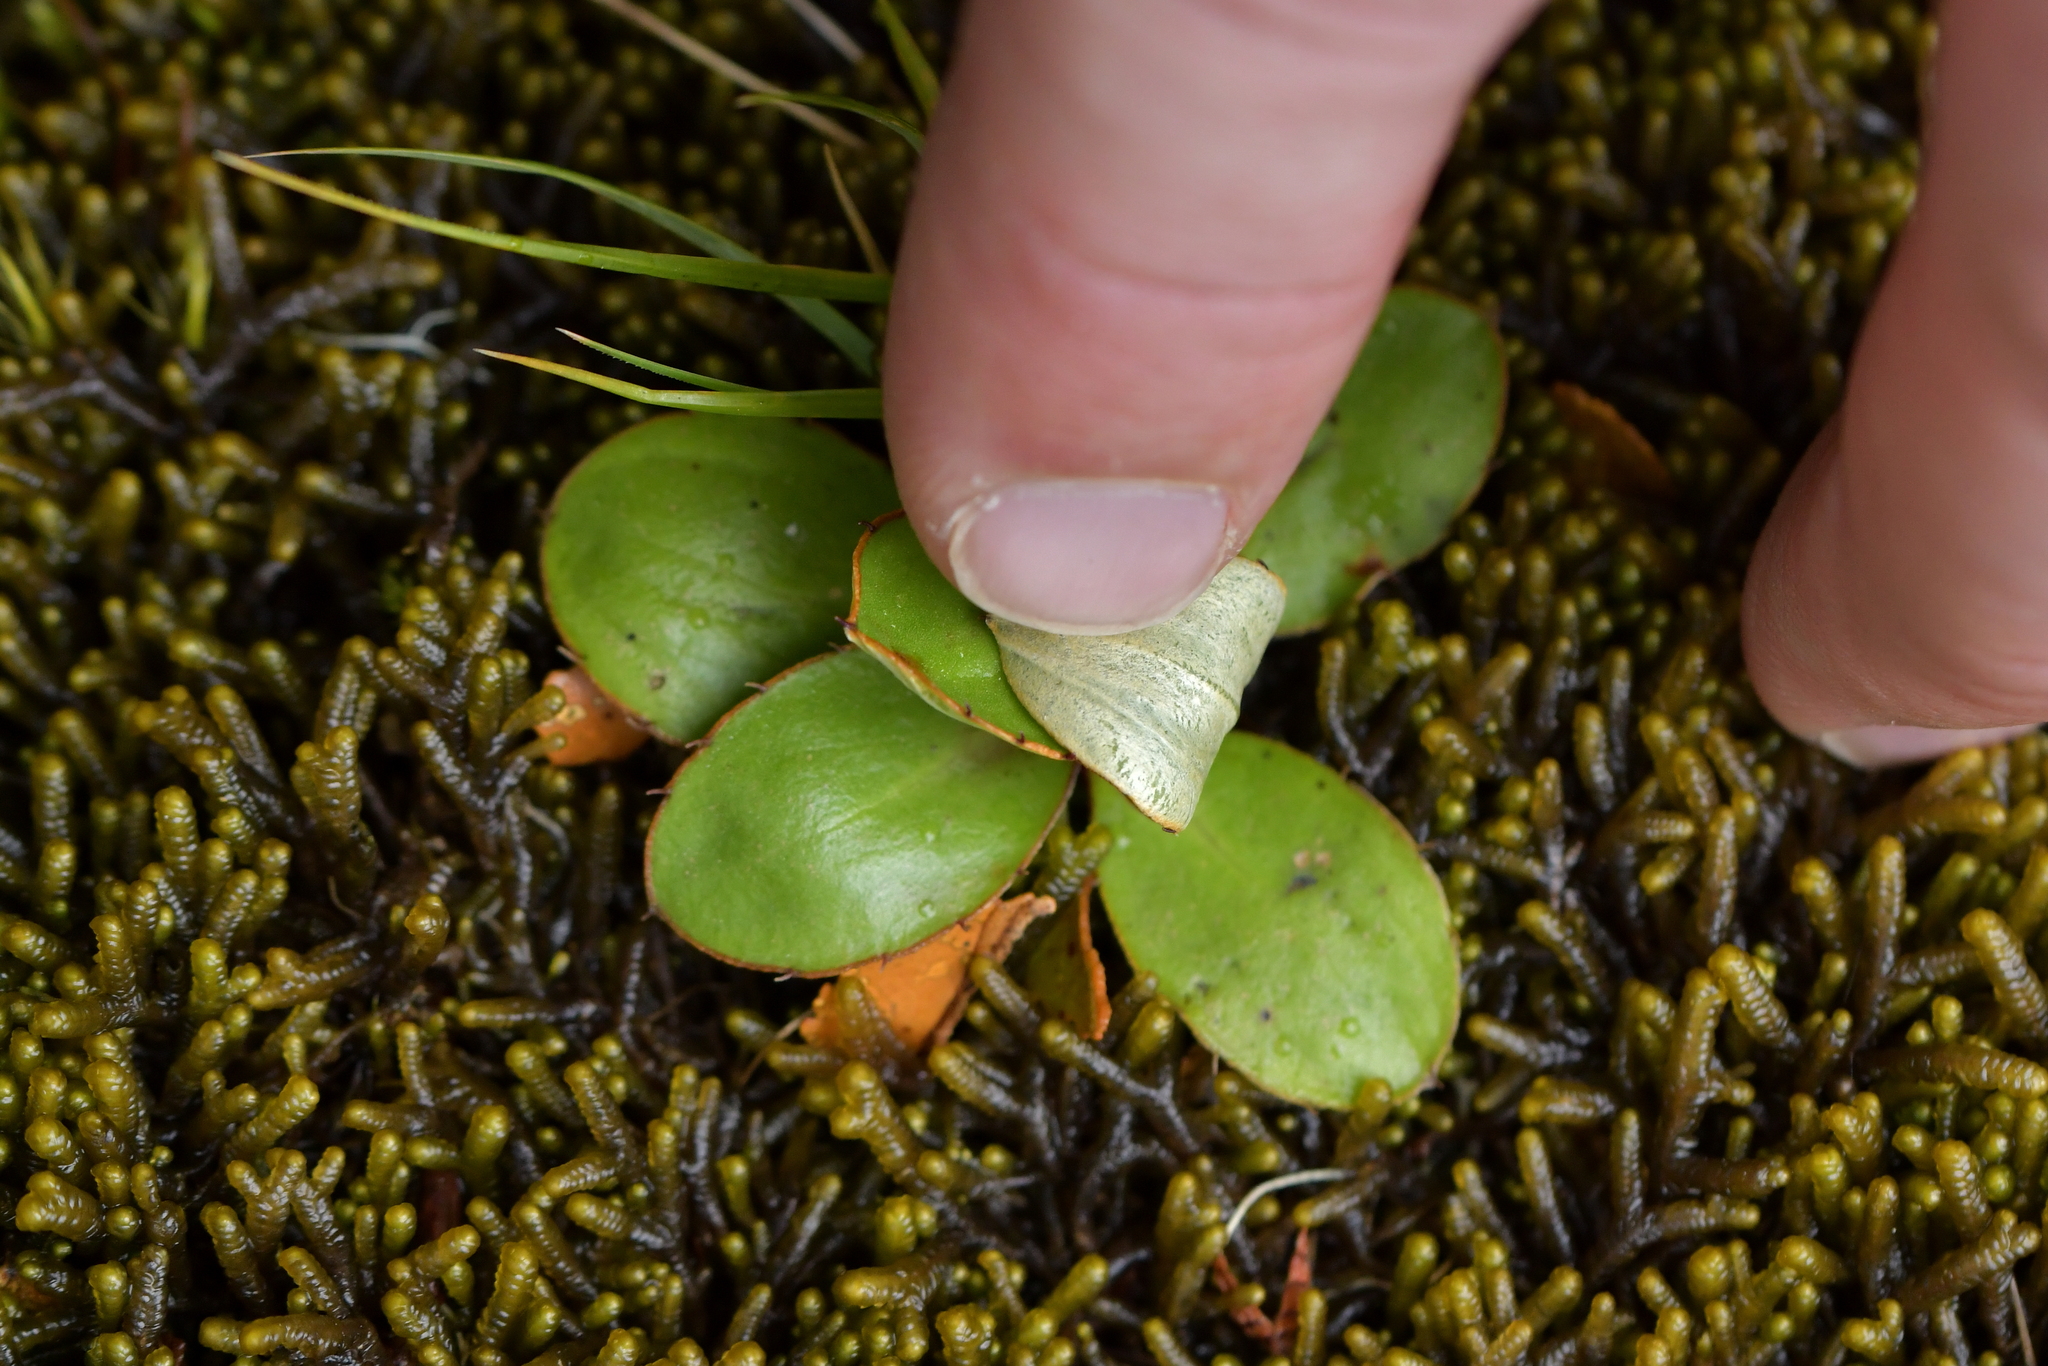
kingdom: Plantae
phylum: Tracheophyta
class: Magnoliopsida
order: Asterales
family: Asteraceae
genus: Celmisia
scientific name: Celmisia dallii
